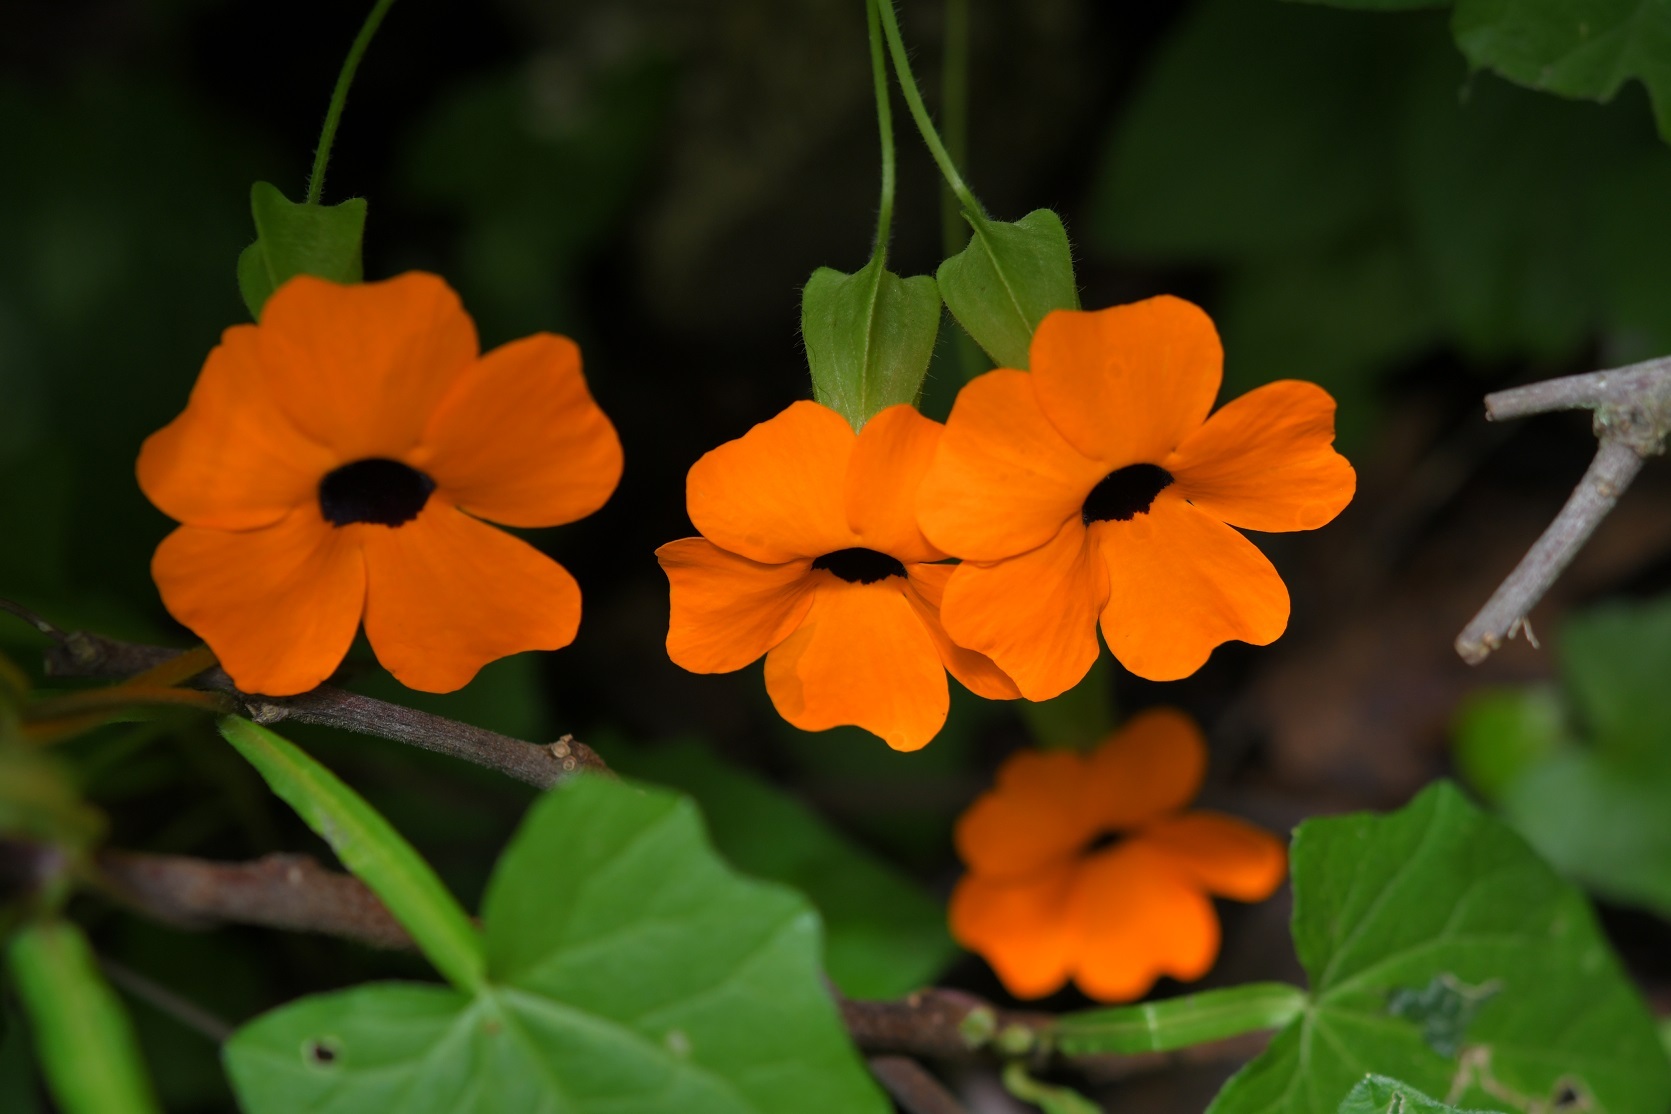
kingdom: Plantae
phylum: Tracheophyta
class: Magnoliopsida
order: Lamiales
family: Acanthaceae
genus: Thunbergia
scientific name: Thunbergia alata
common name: Blackeyed susan vine
